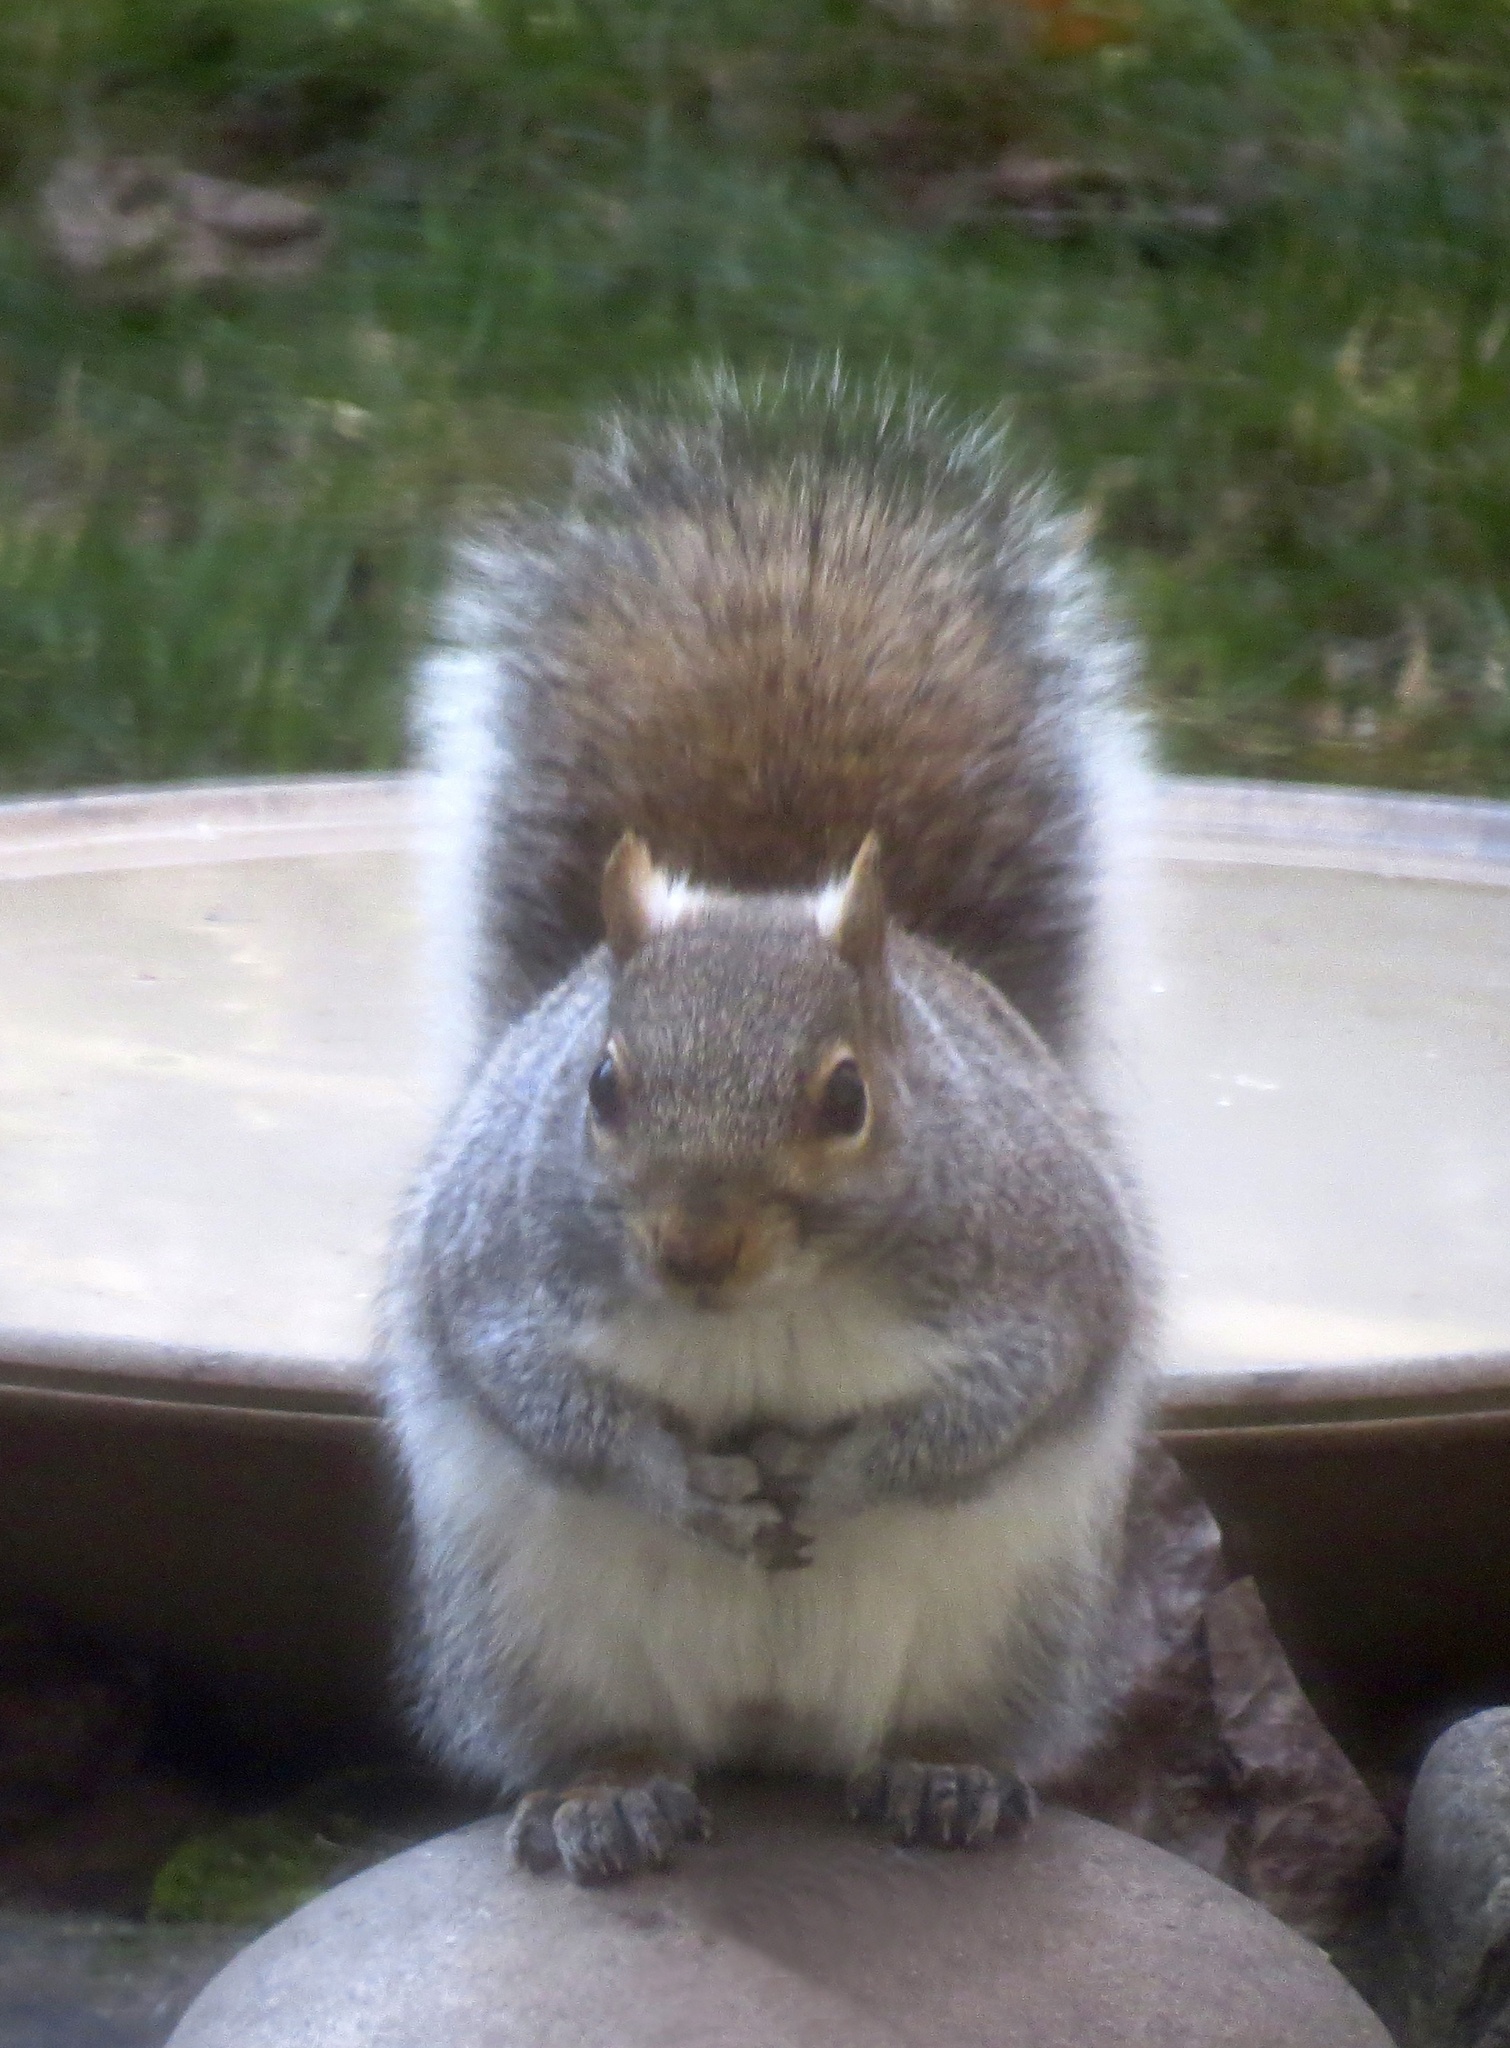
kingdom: Animalia
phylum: Chordata
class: Mammalia
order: Rodentia
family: Sciuridae
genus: Sciurus
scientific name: Sciurus carolinensis
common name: Eastern gray squirrel
